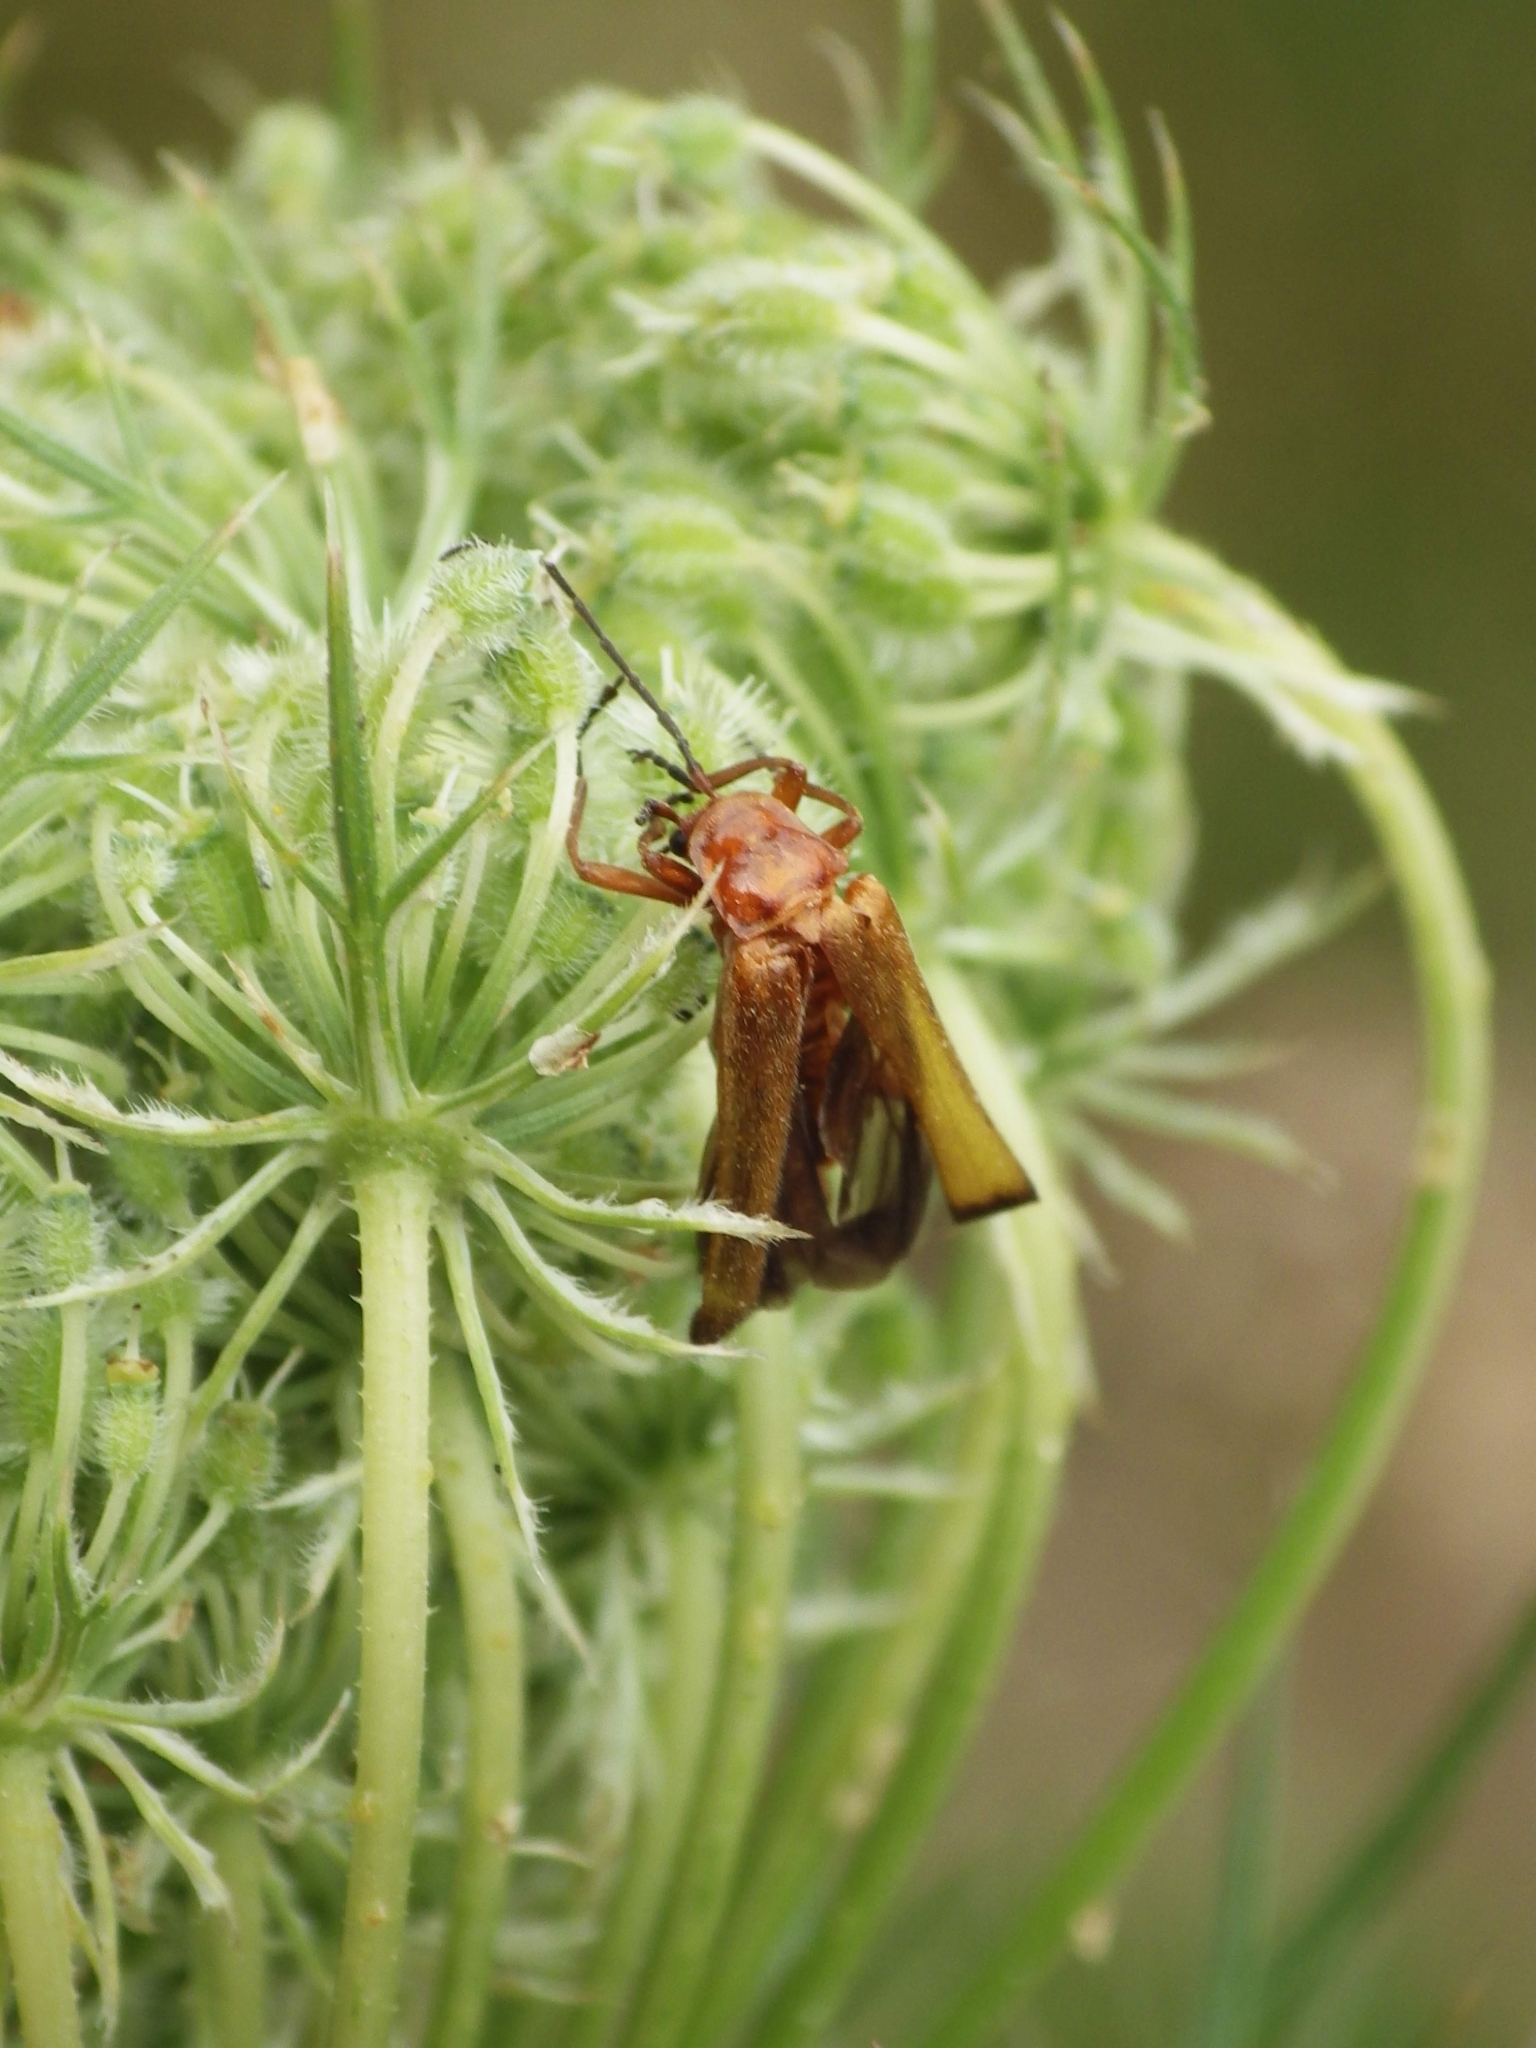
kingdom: Animalia
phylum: Arthropoda
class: Insecta
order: Coleoptera
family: Cantharidae
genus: Rhagonycha
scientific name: Rhagonycha fulva
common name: Common red soldier beetle
